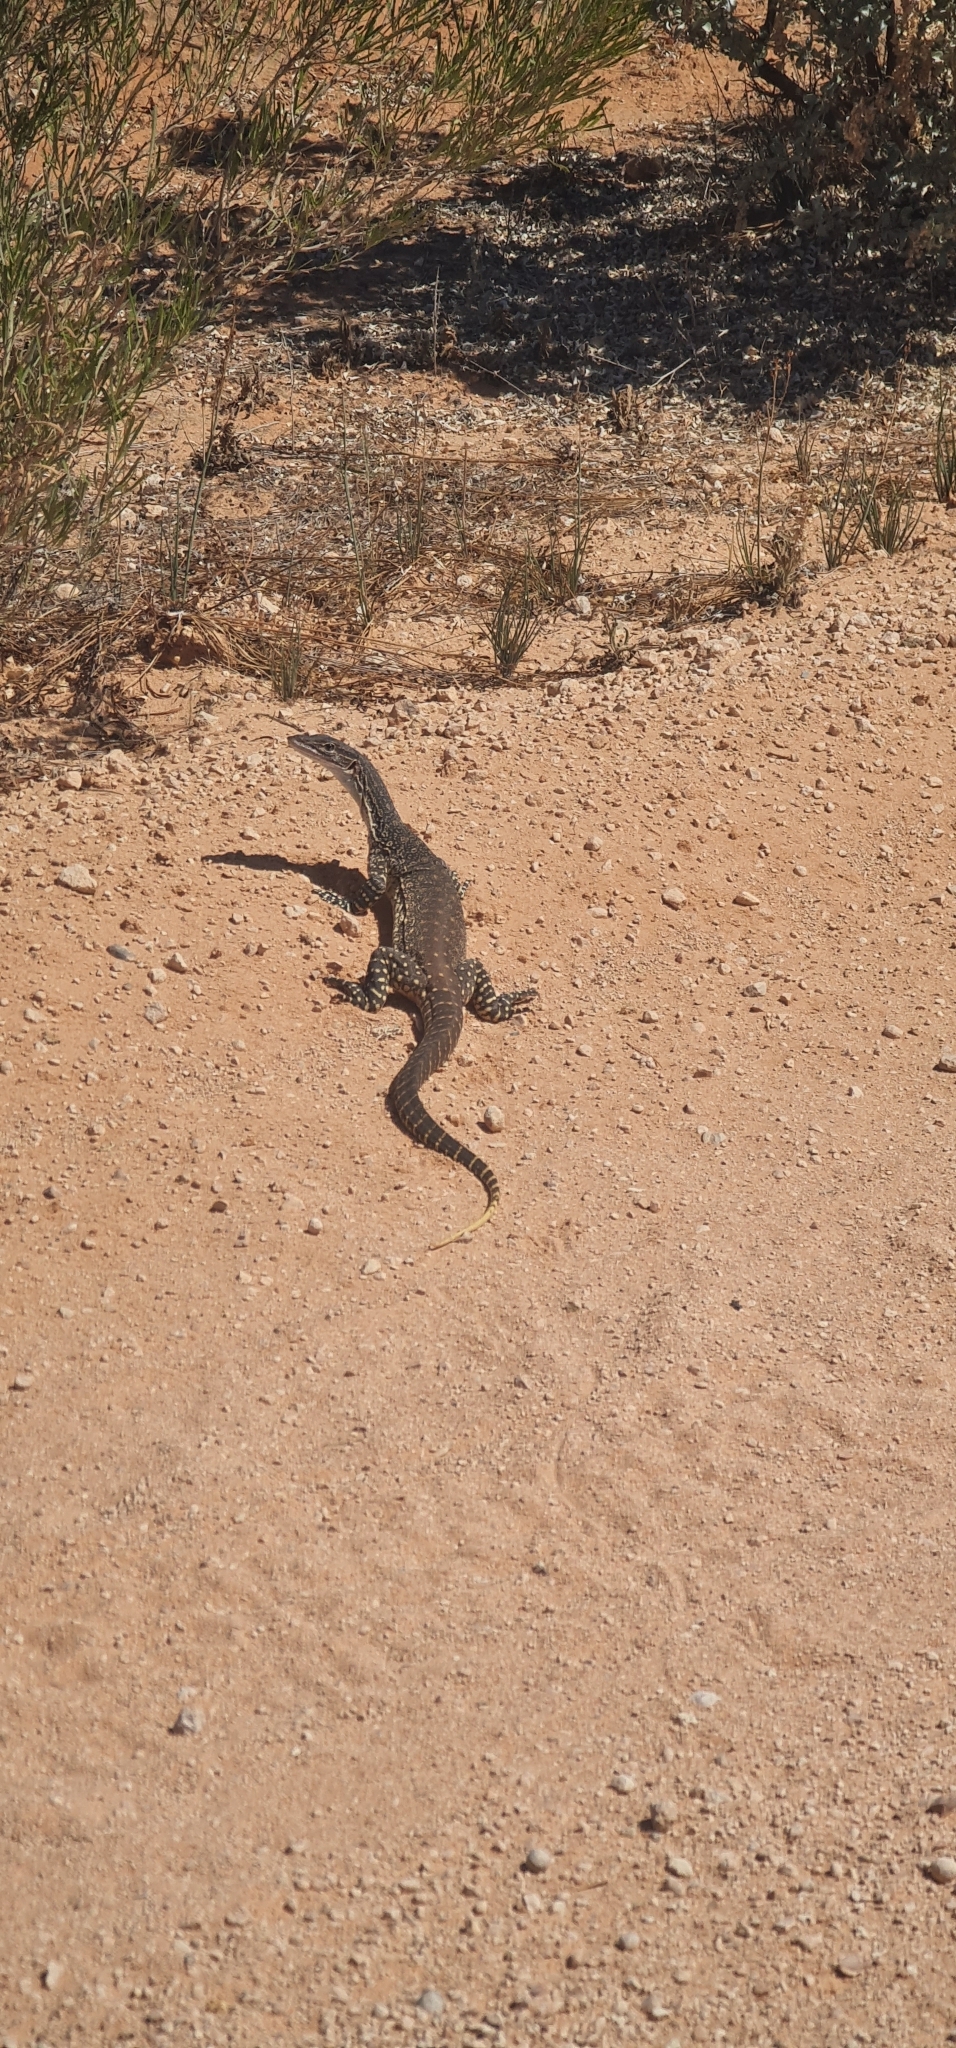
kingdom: Animalia
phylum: Chordata
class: Squamata
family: Varanidae
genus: Varanus
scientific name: Varanus gouldii
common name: Gould's goanna
